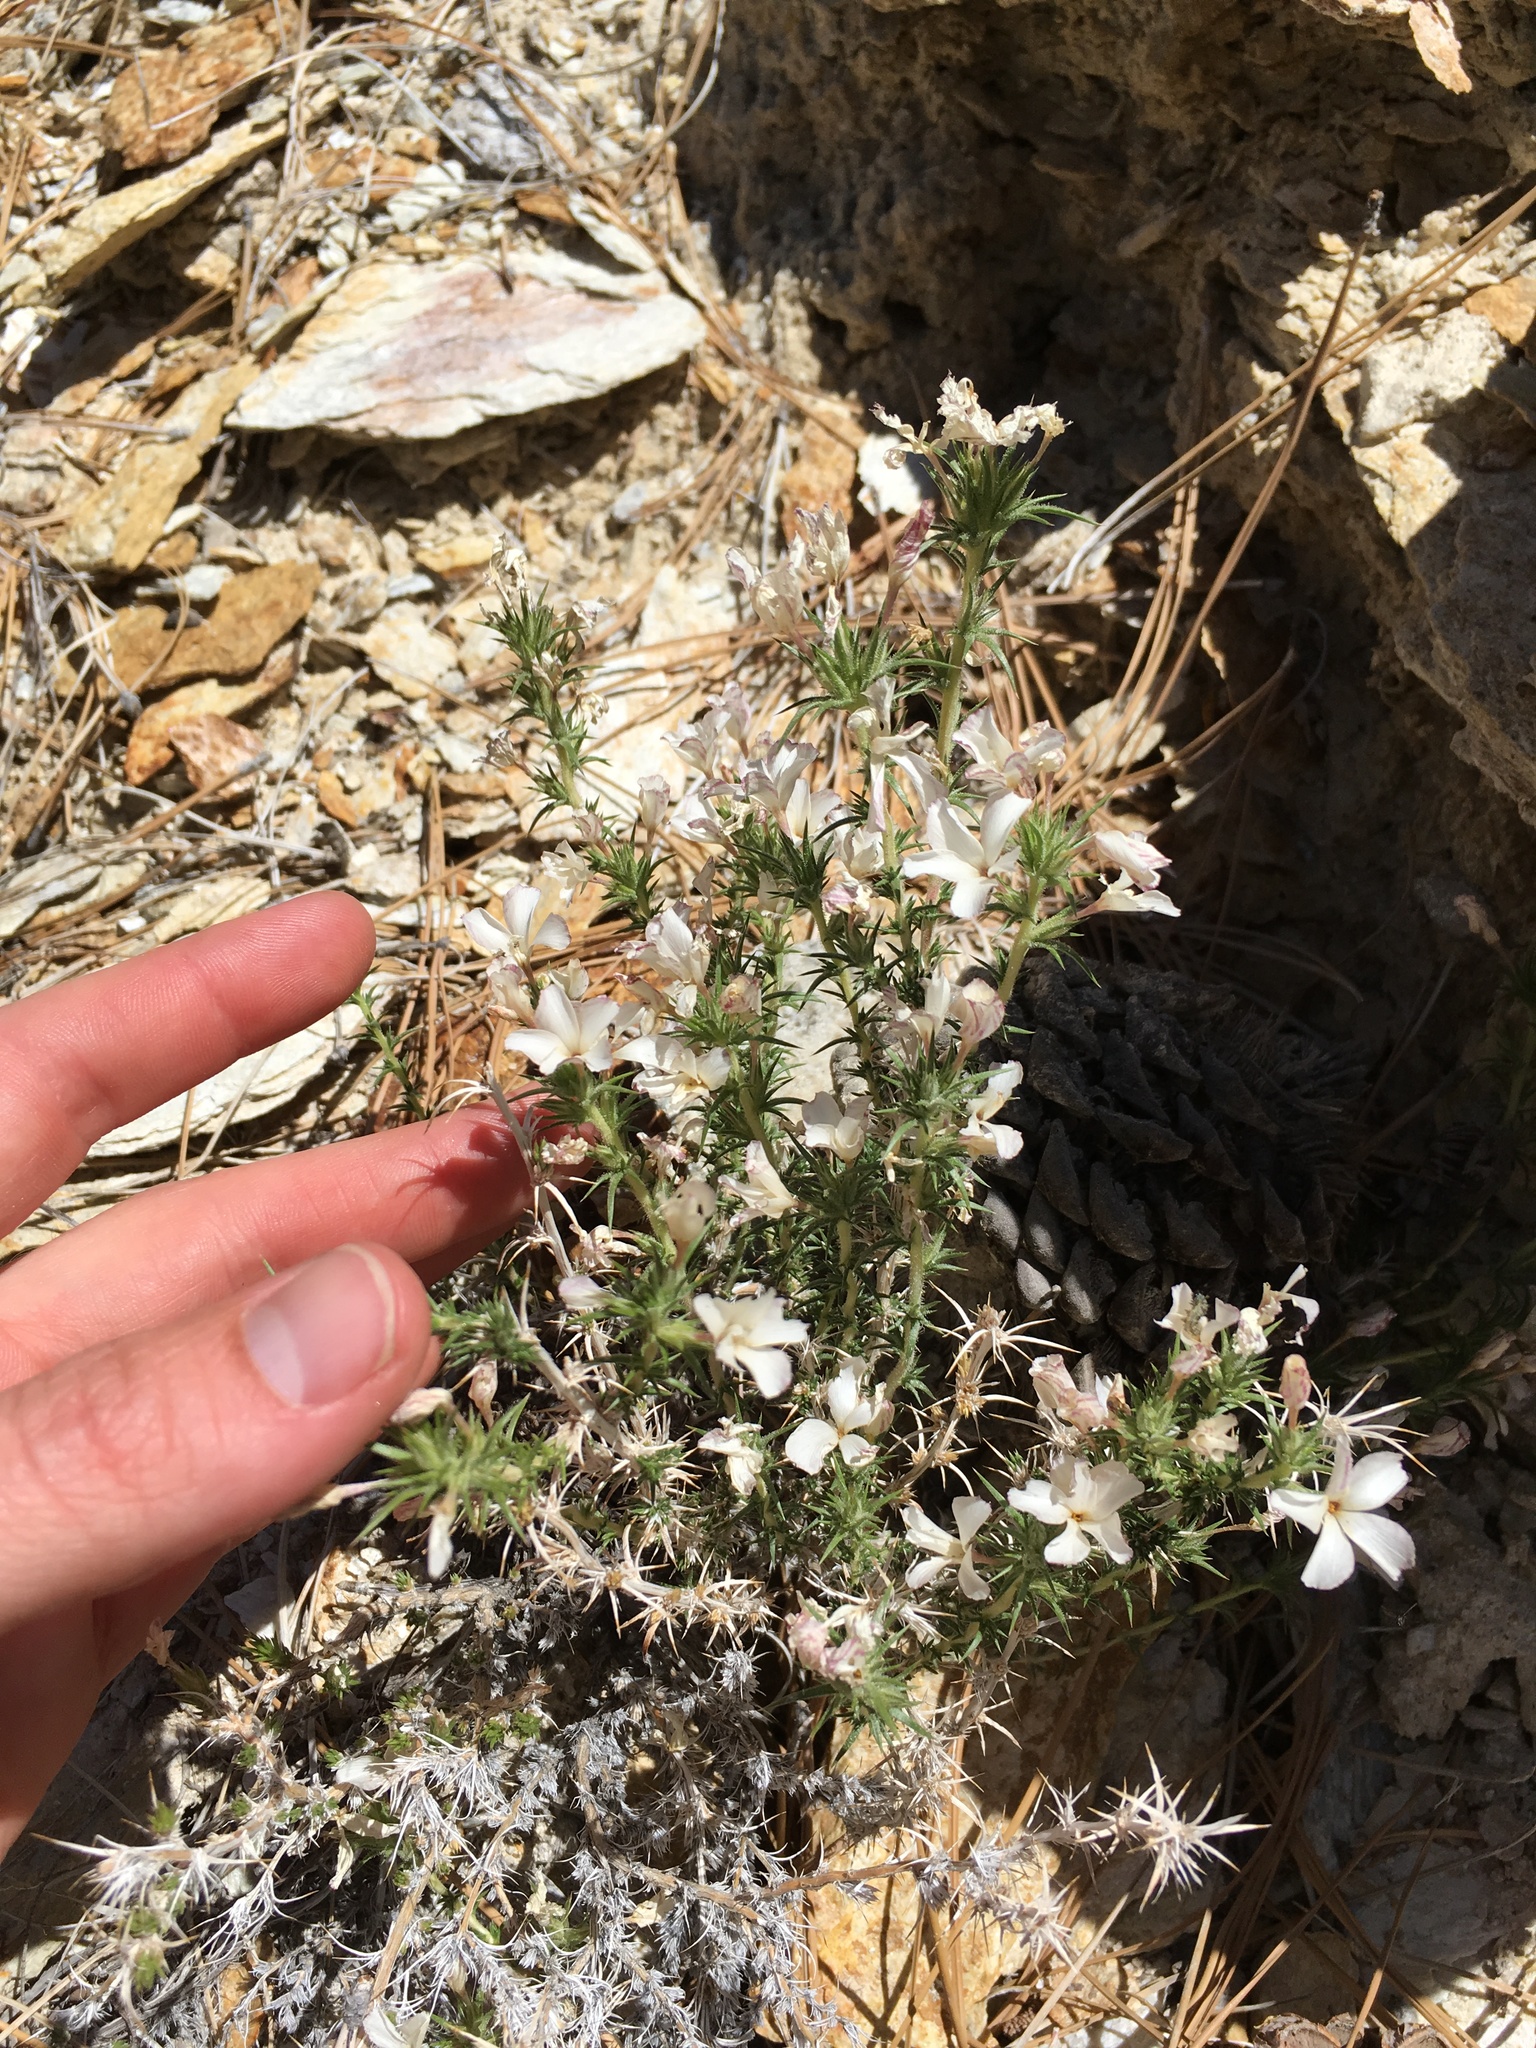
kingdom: Plantae
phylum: Tracheophyta
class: Magnoliopsida
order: Ericales
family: Polemoniaceae
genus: Linanthus
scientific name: Linanthus pungens
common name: Granite prickly phlox
